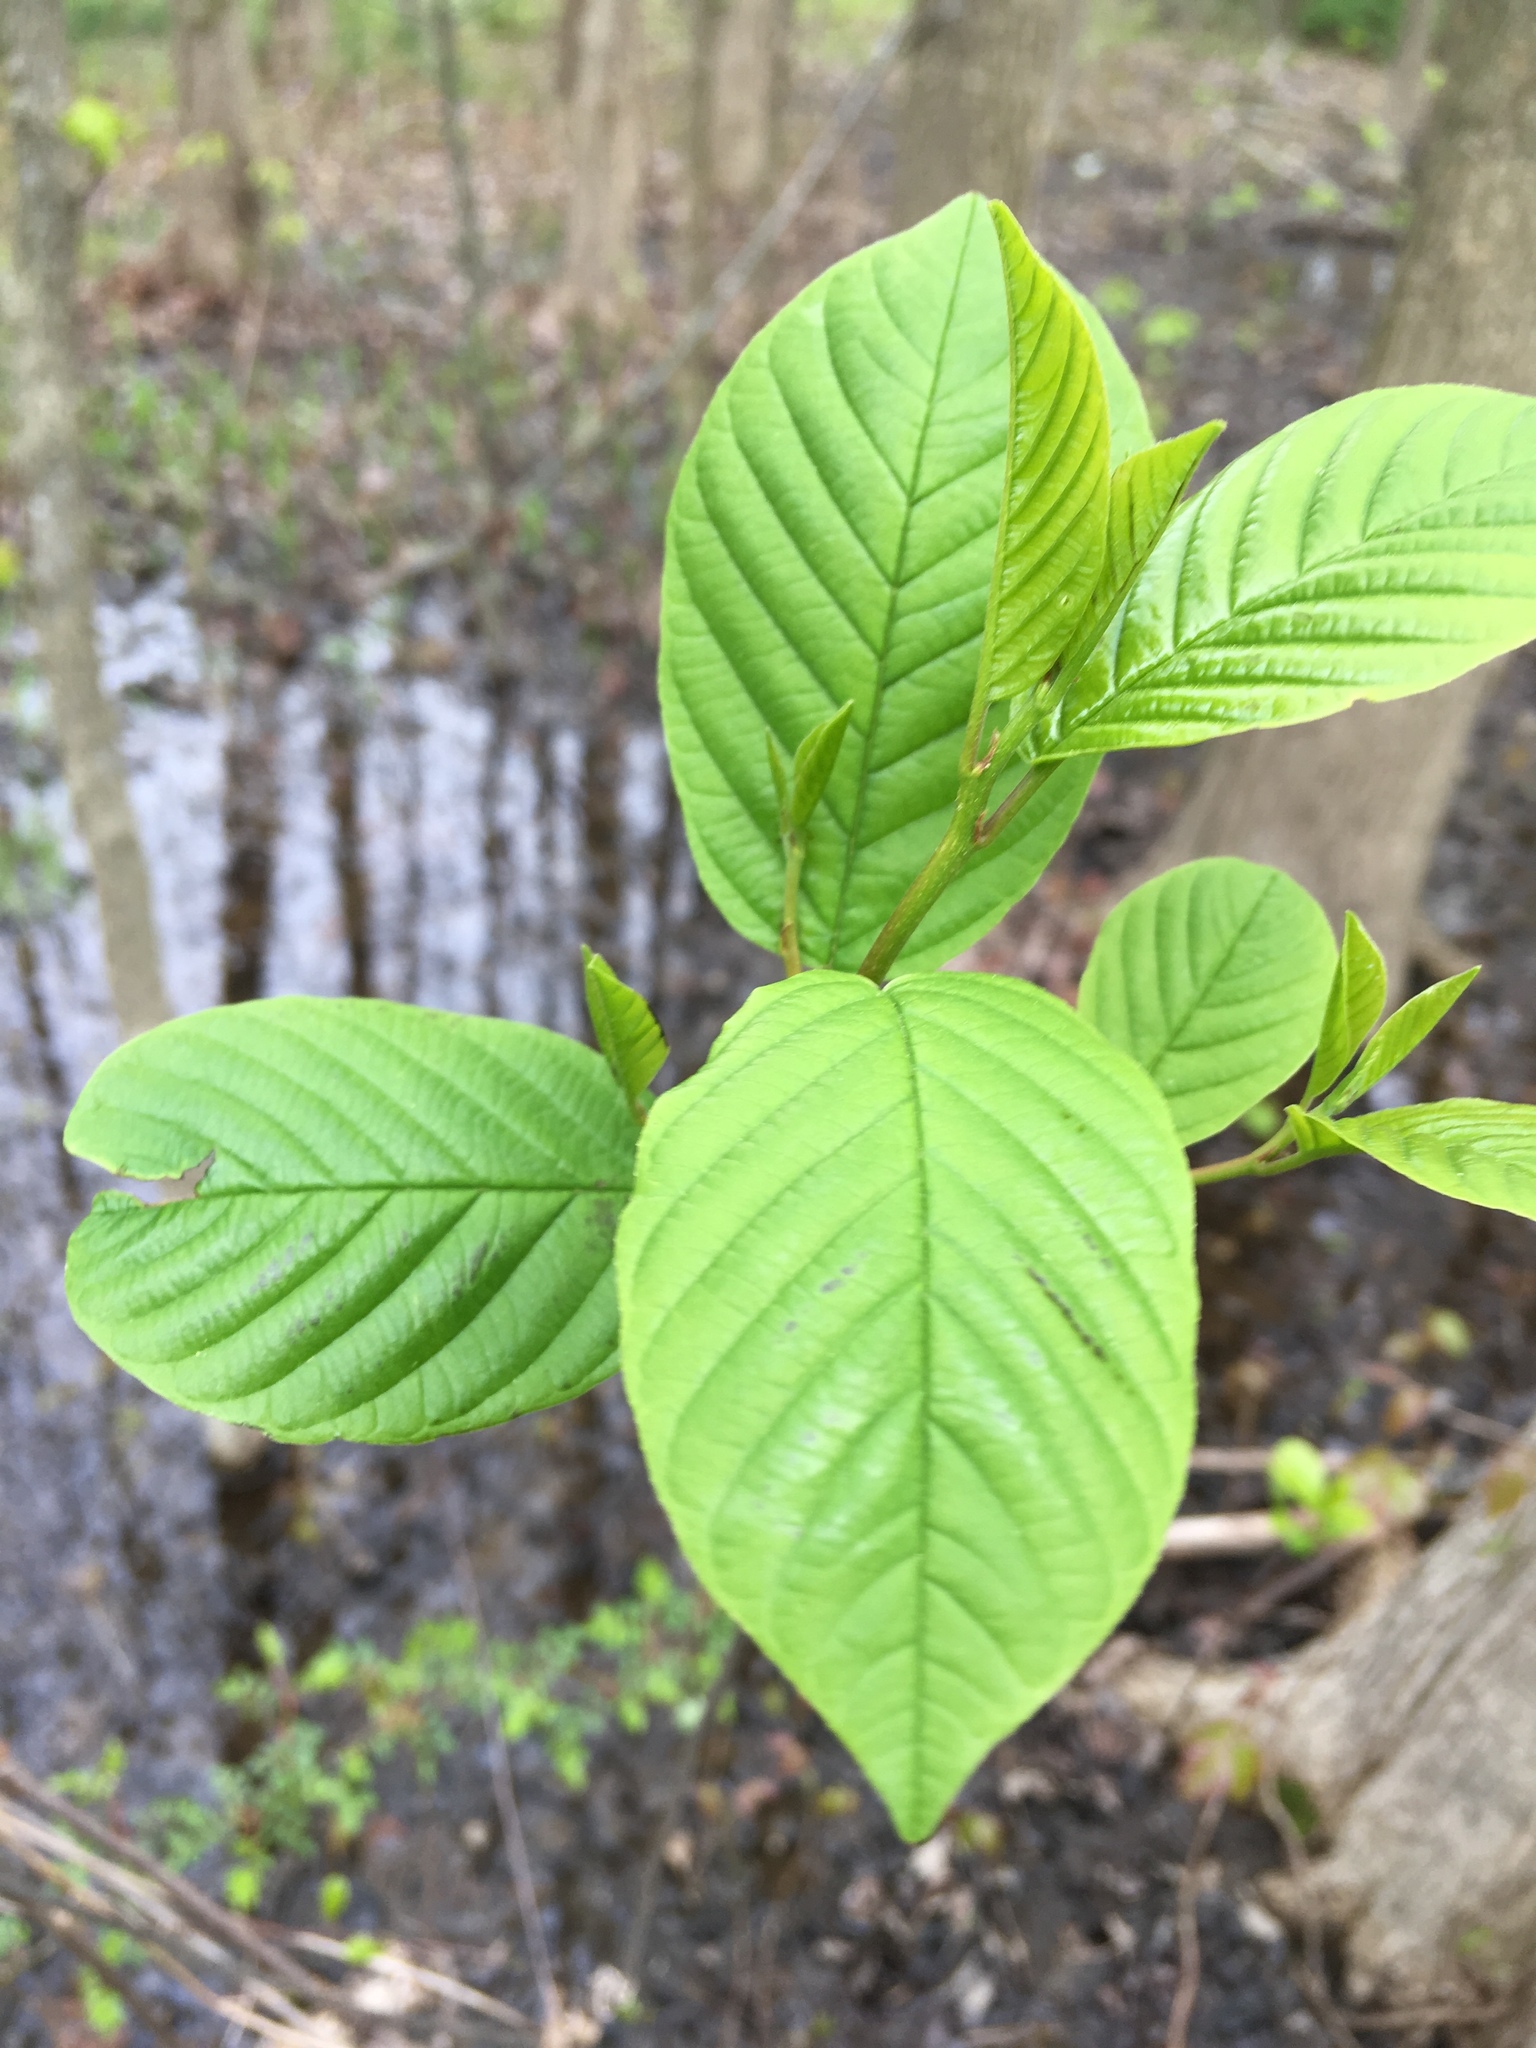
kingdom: Plantae
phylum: Tracheophyta
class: Magnoliopsida
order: Rosales
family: Rhamnaceae
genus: Frangula
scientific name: Frangula alnus
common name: Alder buckthorn
